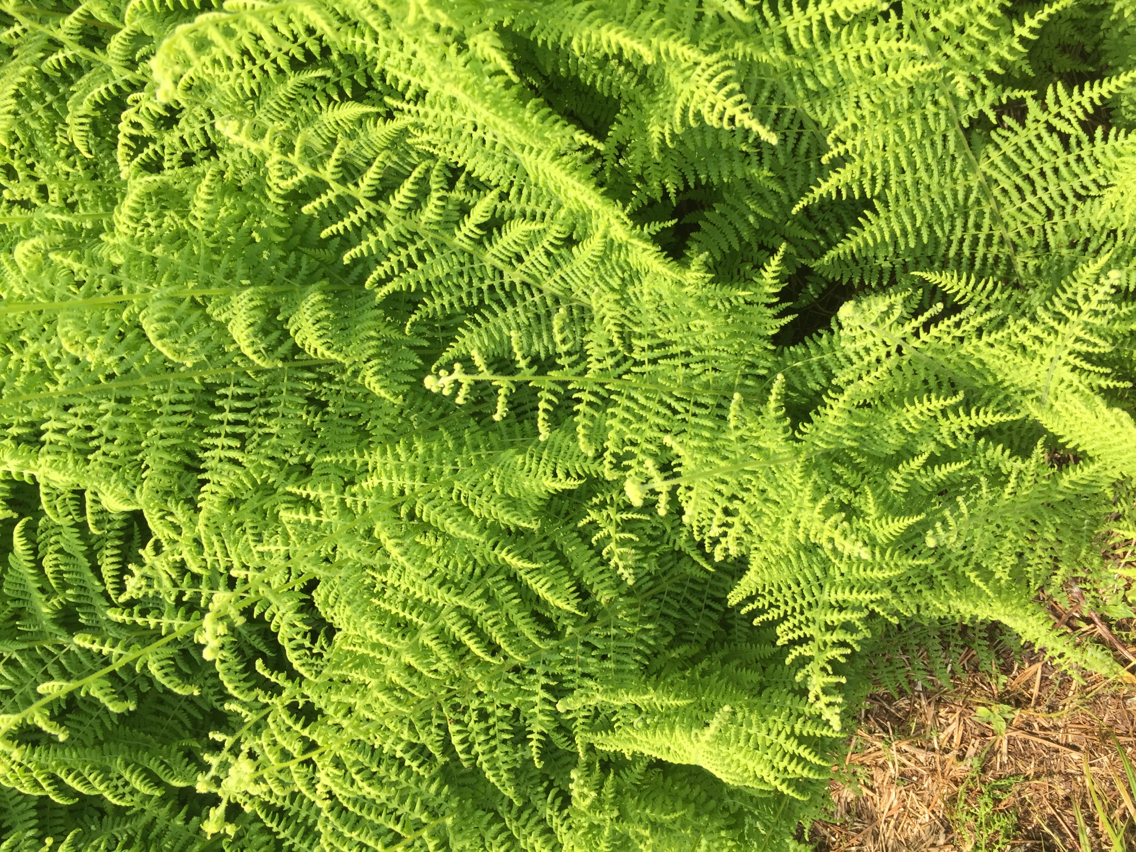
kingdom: Plantae
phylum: Tracheophyta
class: Polypodiopsida
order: Polypodiales
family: Dennstaedtiaceae
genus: Sitobolium
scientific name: Sitobolium punctilobum
